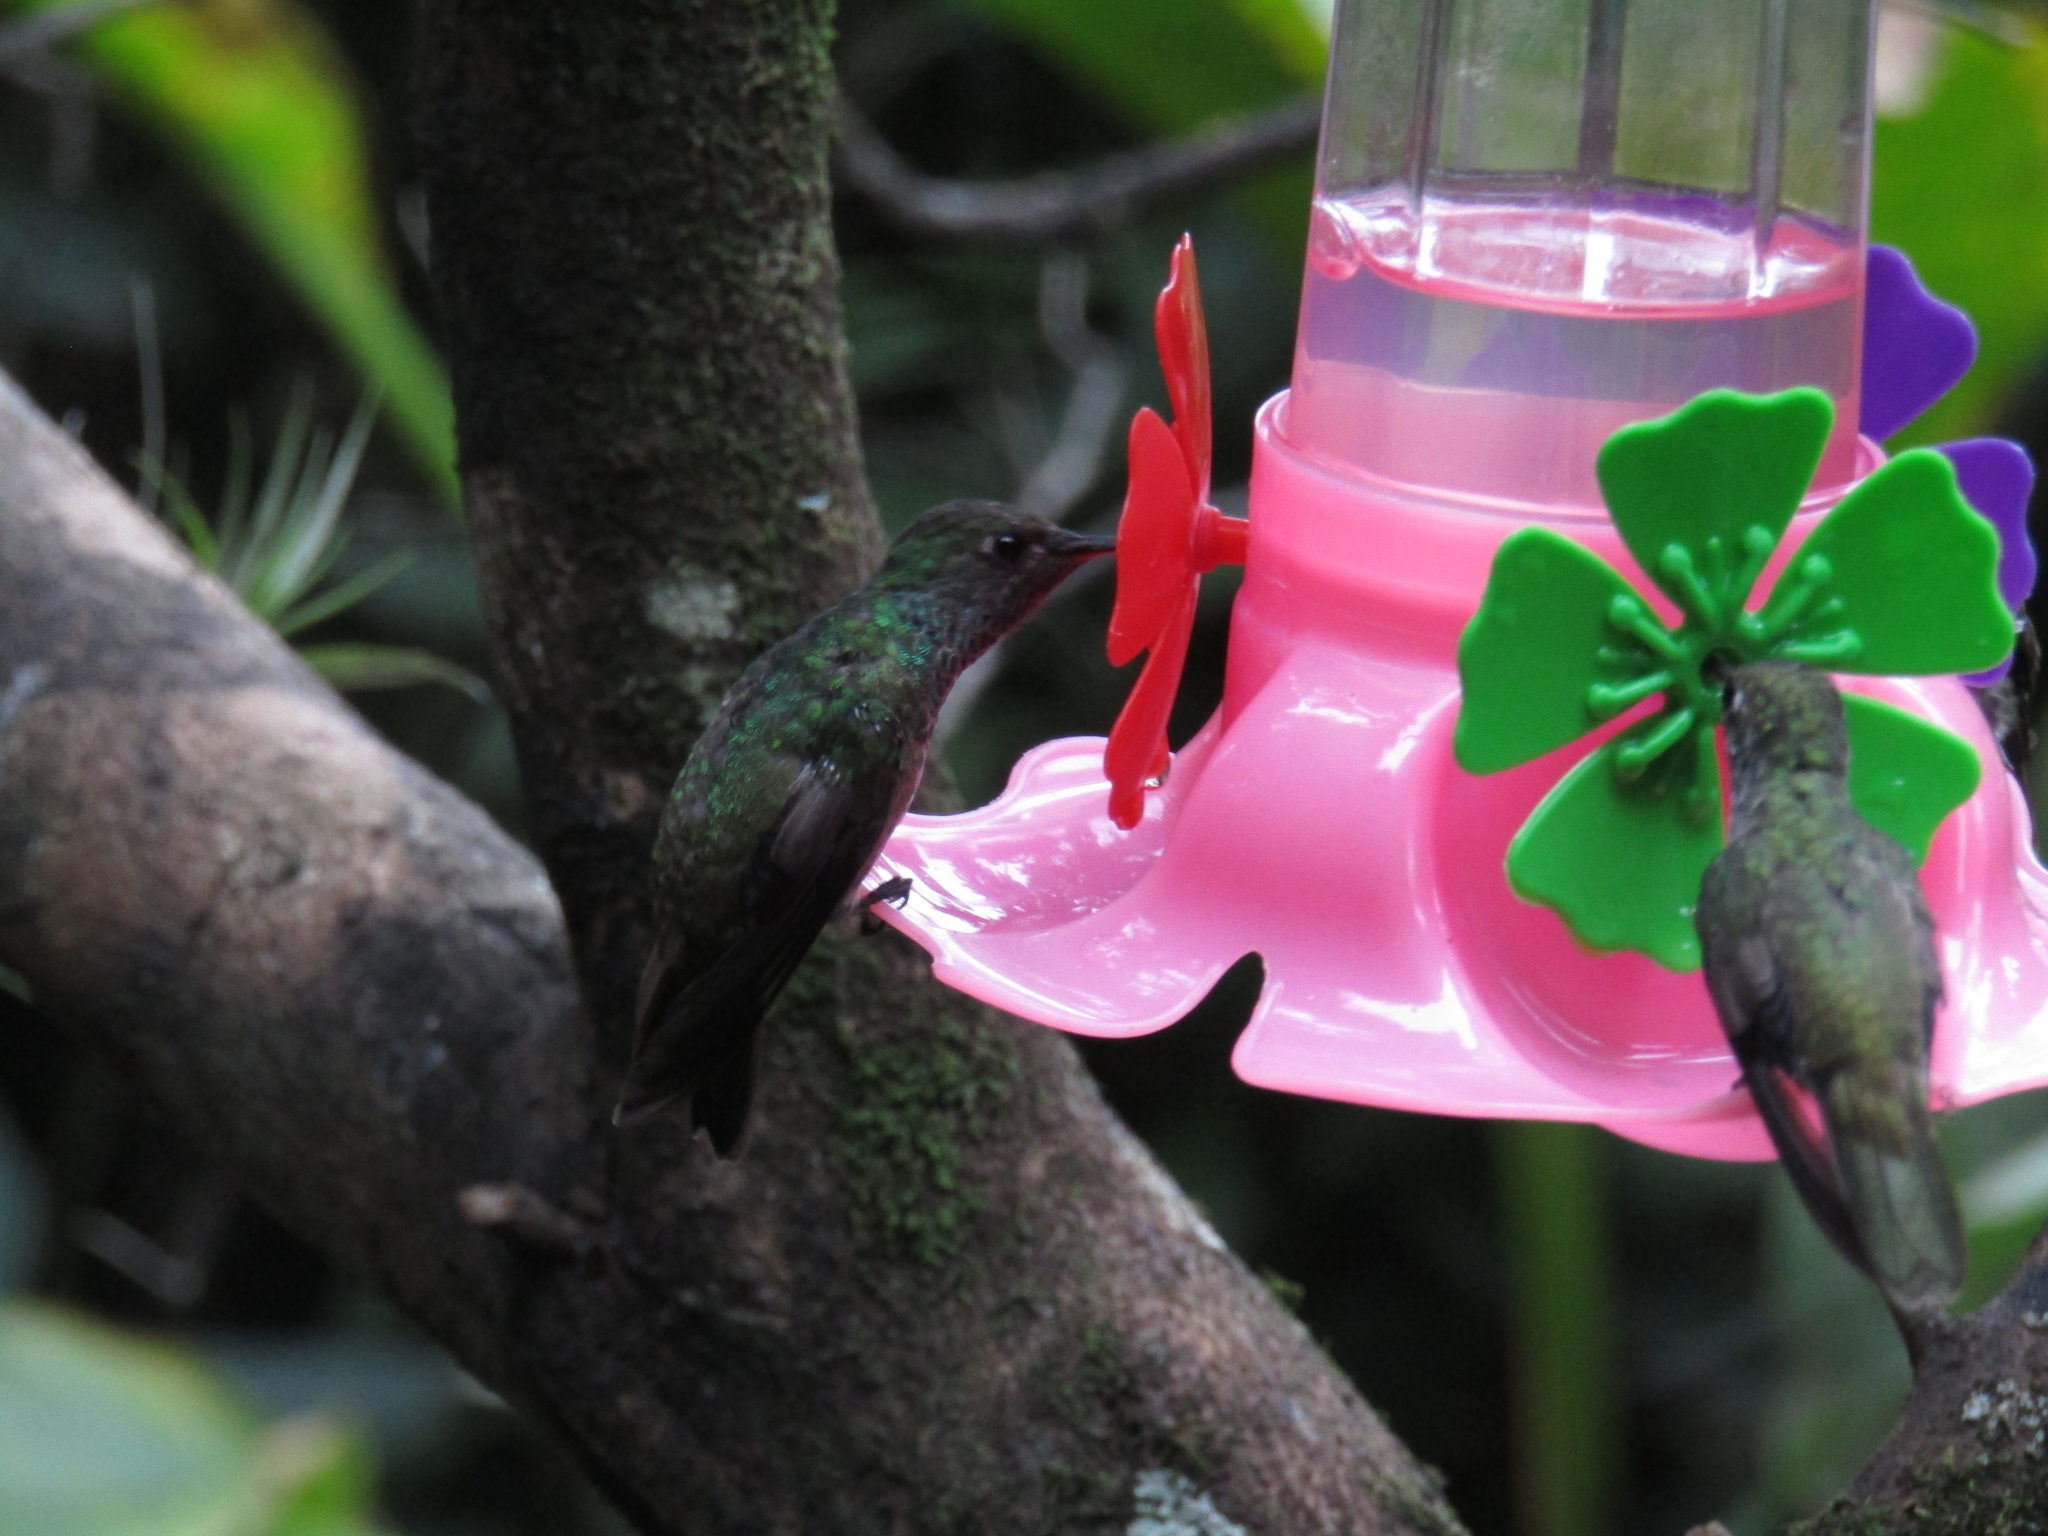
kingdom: Animalia
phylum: Chordata
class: Aves
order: Apodiformes
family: Trochilidae
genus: Chrysuronia
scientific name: Chrysuronia versicolor
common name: Versicolored emerald
